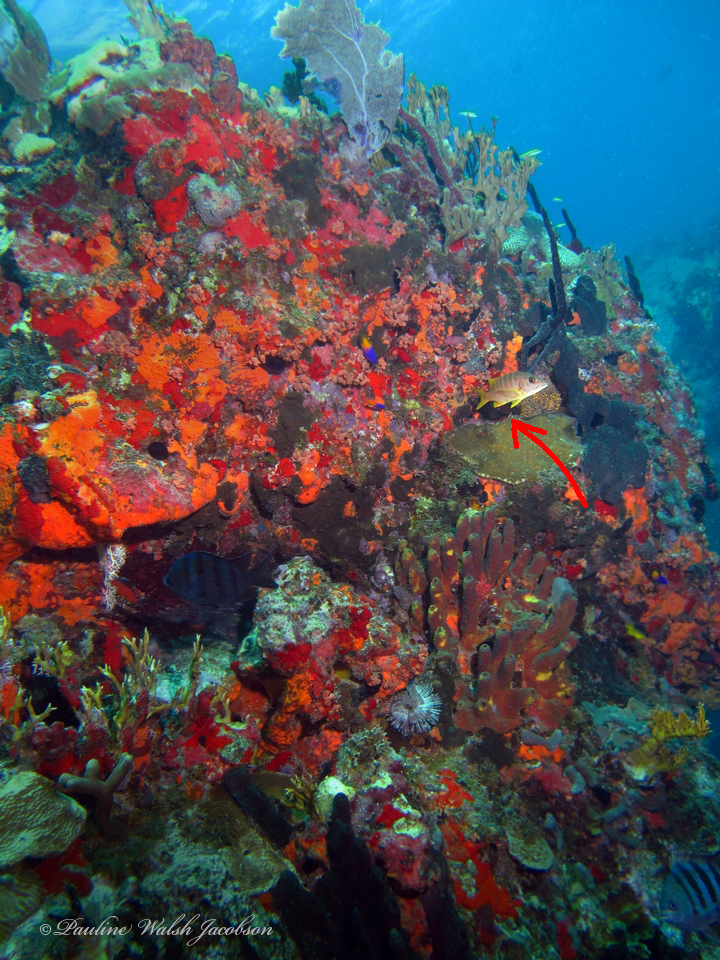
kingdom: Animalia
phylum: Chordata
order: Perciformes
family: Lutjanidae
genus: Lutjanus
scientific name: Lutjanus apodus
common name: Schoolmaster
